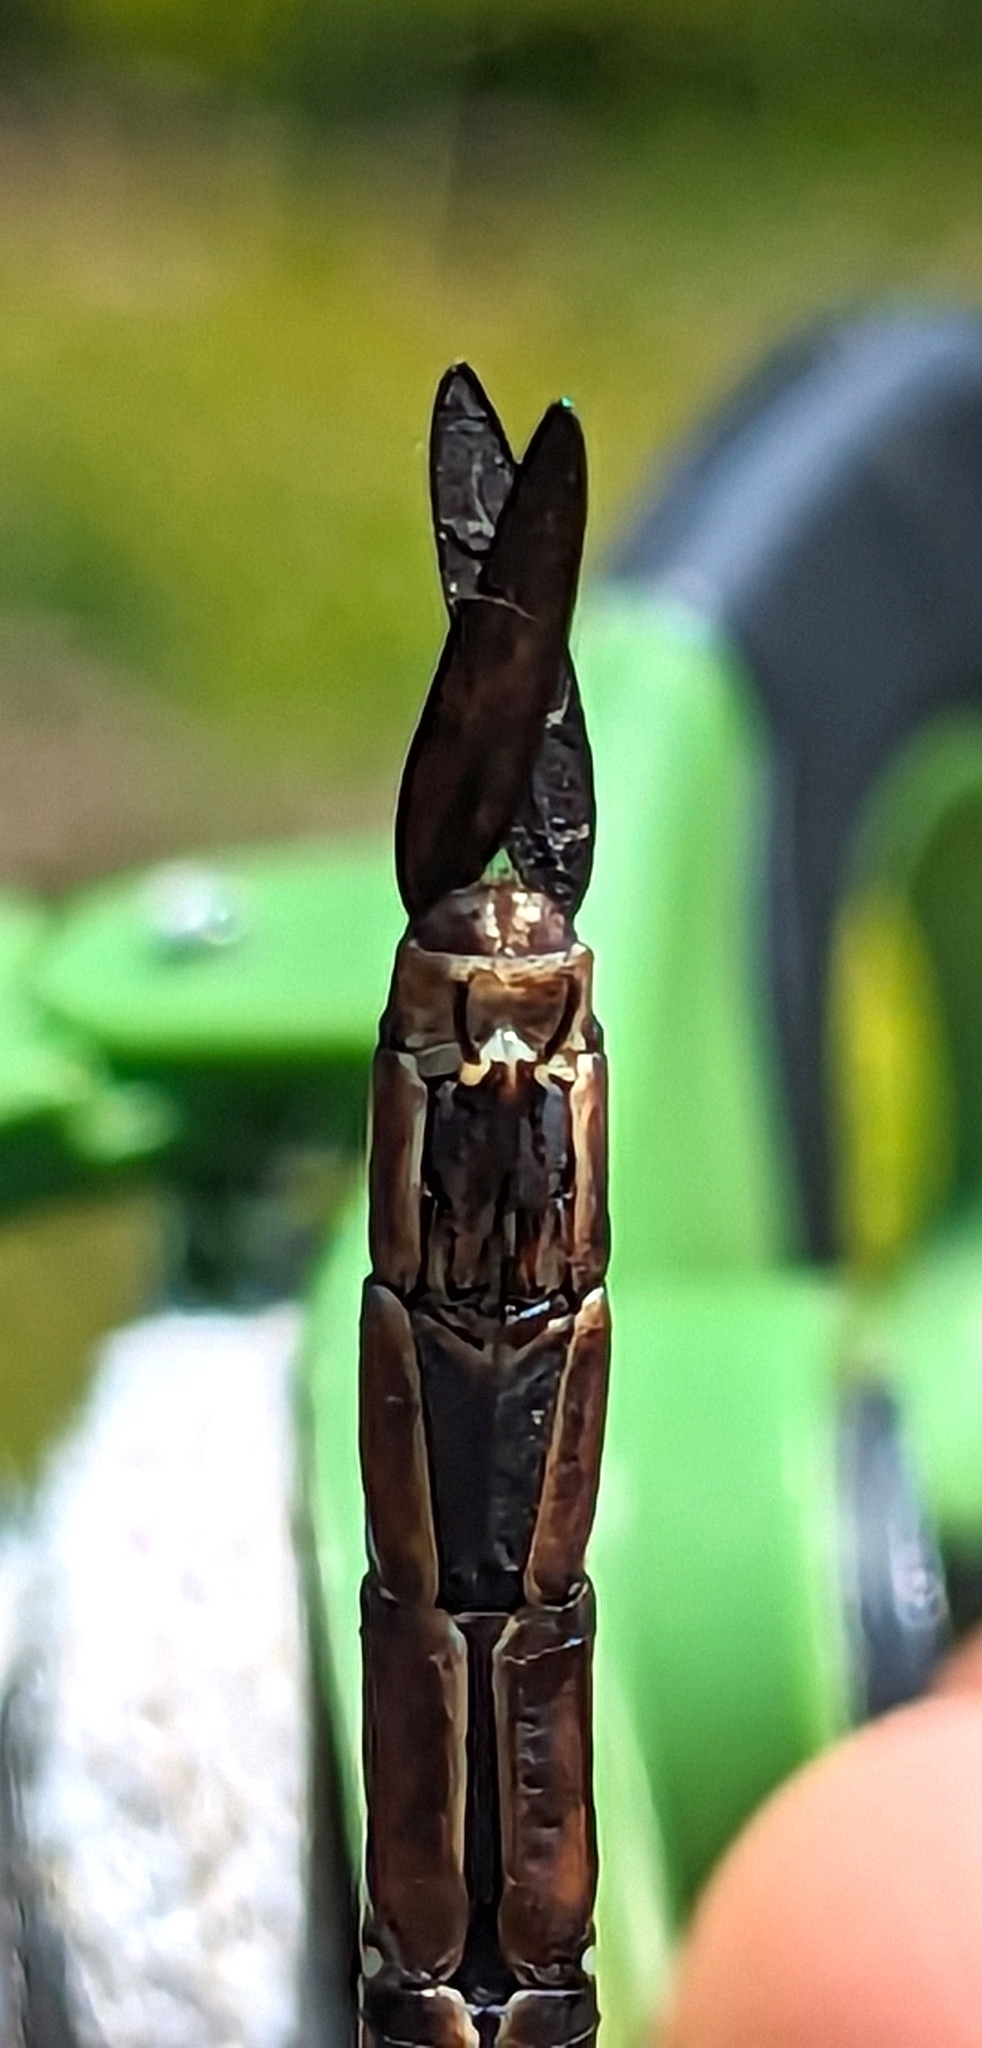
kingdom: Animalia
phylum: Arthropoda
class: Insecta
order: Odonata
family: Aeshnidae
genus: Aeshna
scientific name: Aeshna tuberculifera
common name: Aeschne à tubercules
